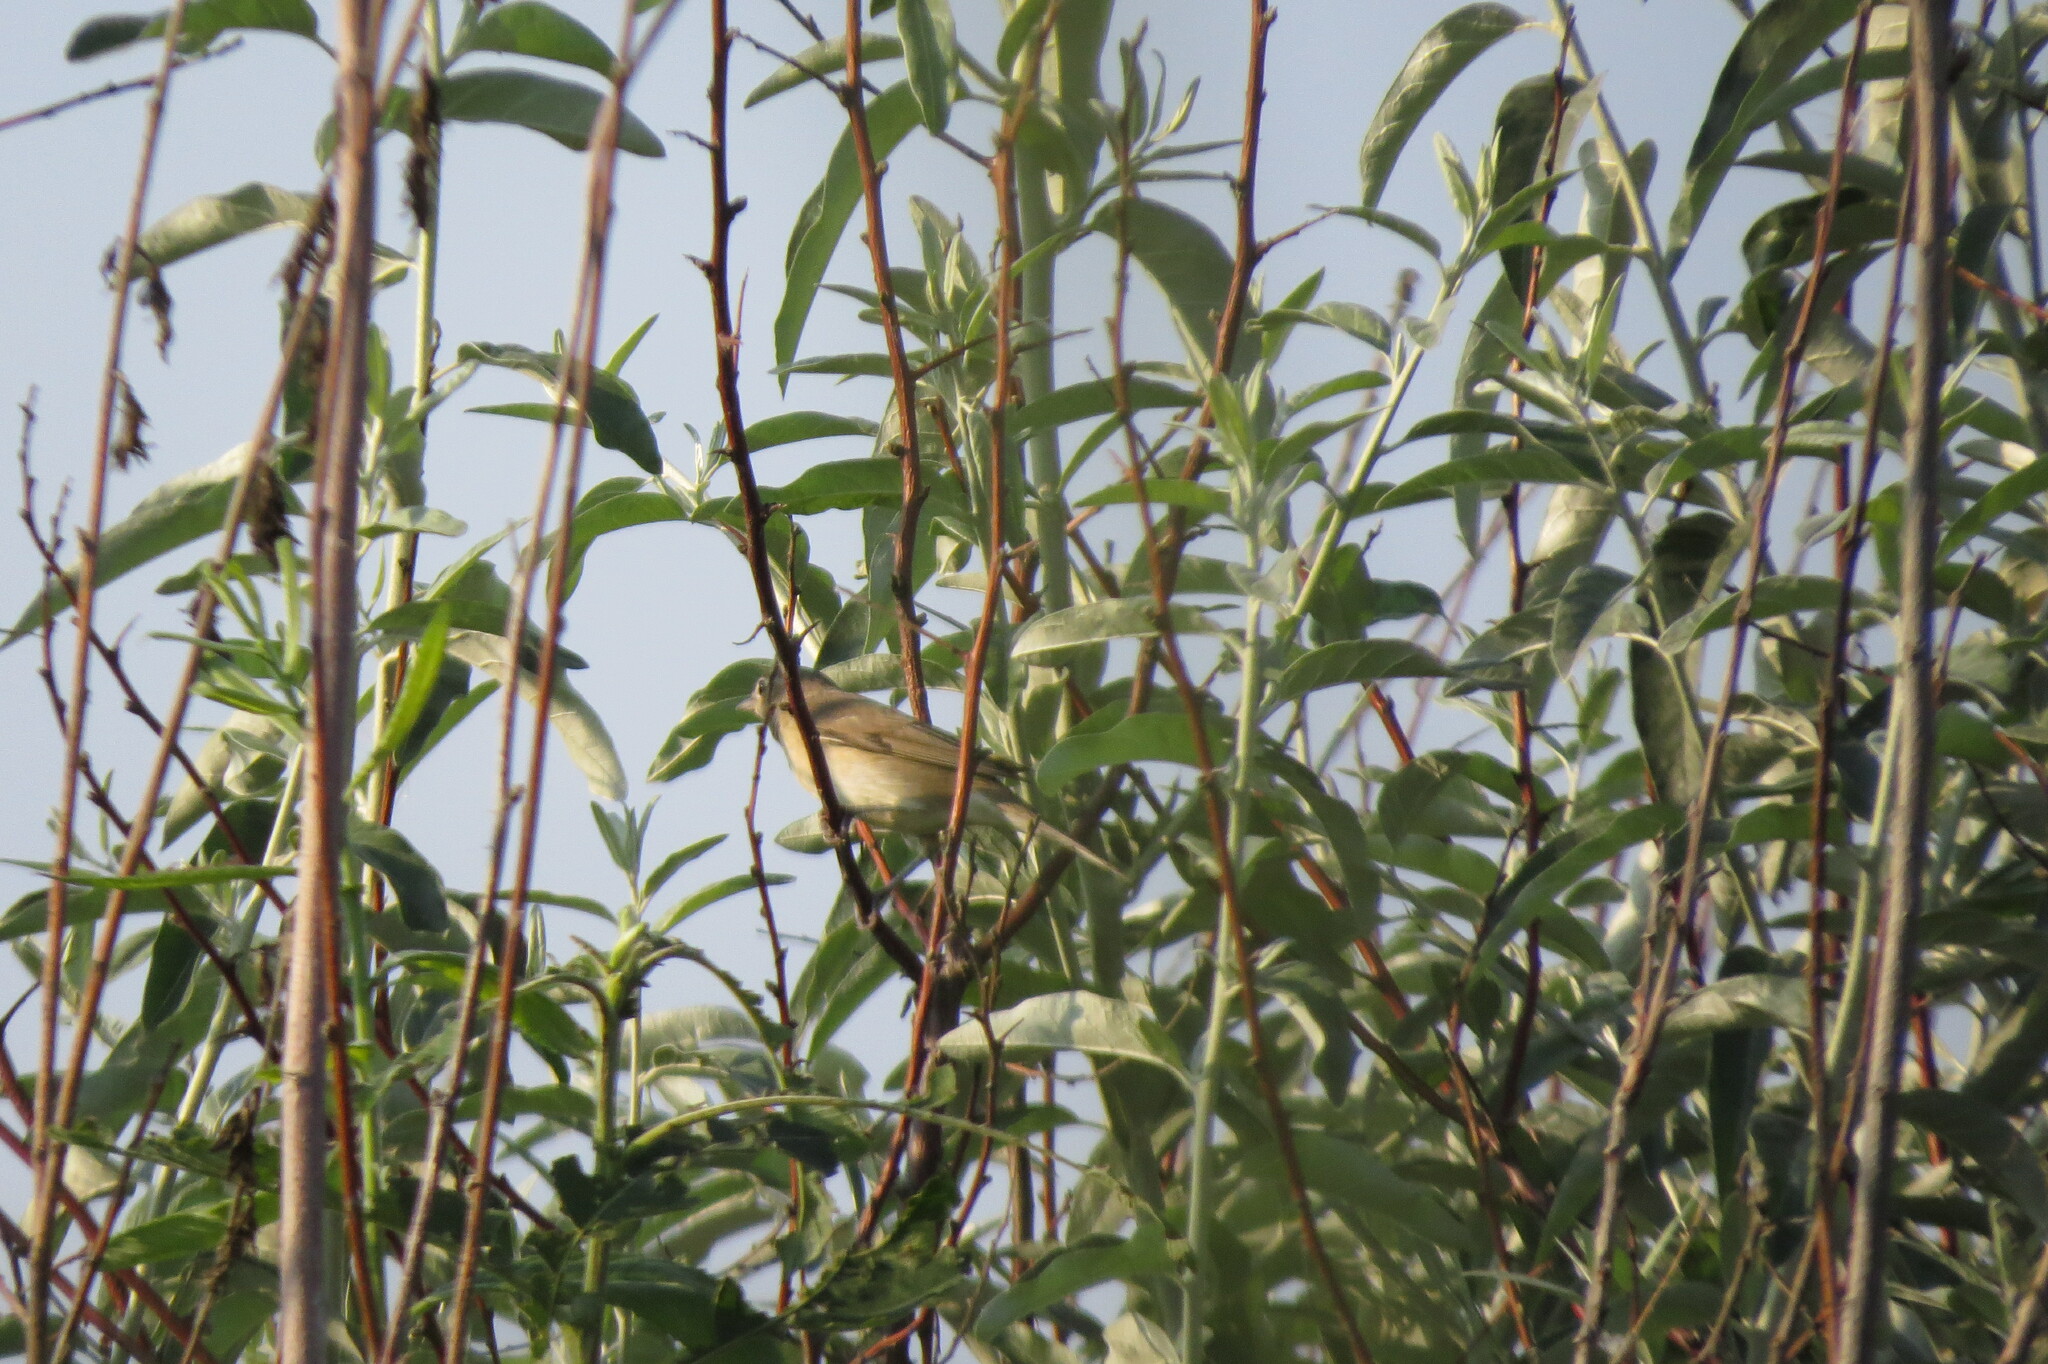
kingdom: Animalia
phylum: Chordata
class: Aves
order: Passeriformes
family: Sylviidae
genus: Sylvia
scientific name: Sylvia borin
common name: Garden warbler
